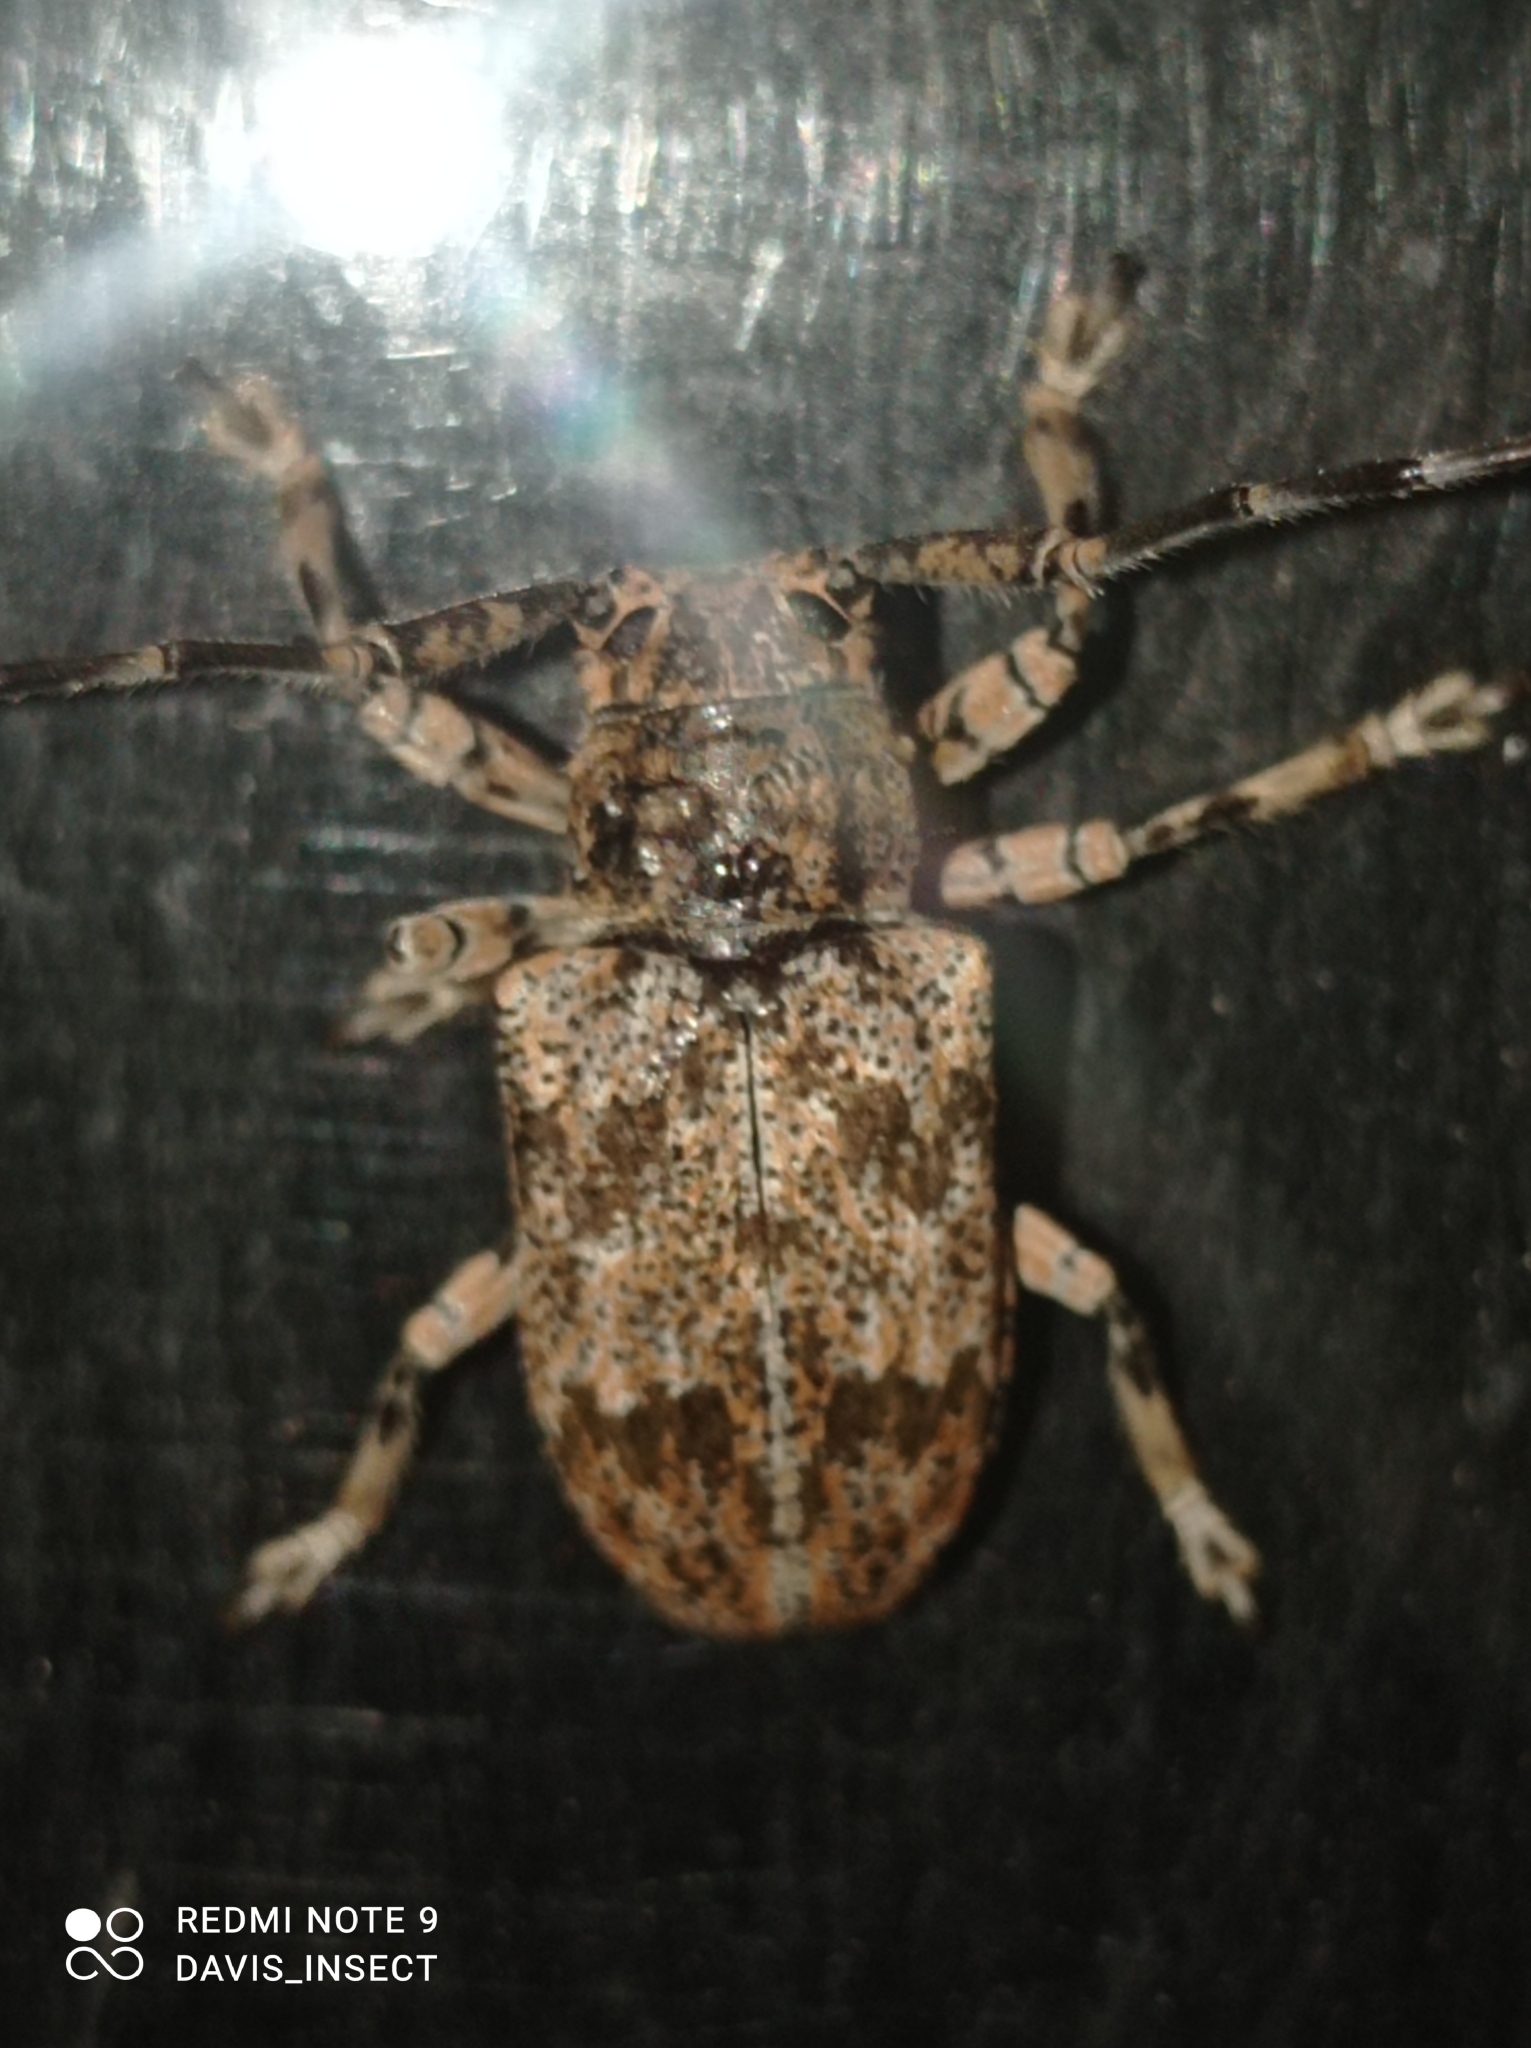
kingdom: Animalia
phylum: Arthropoda
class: Insecta
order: Coleoptera
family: Cerambycidae
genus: Coptops
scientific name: Coptops illicita
